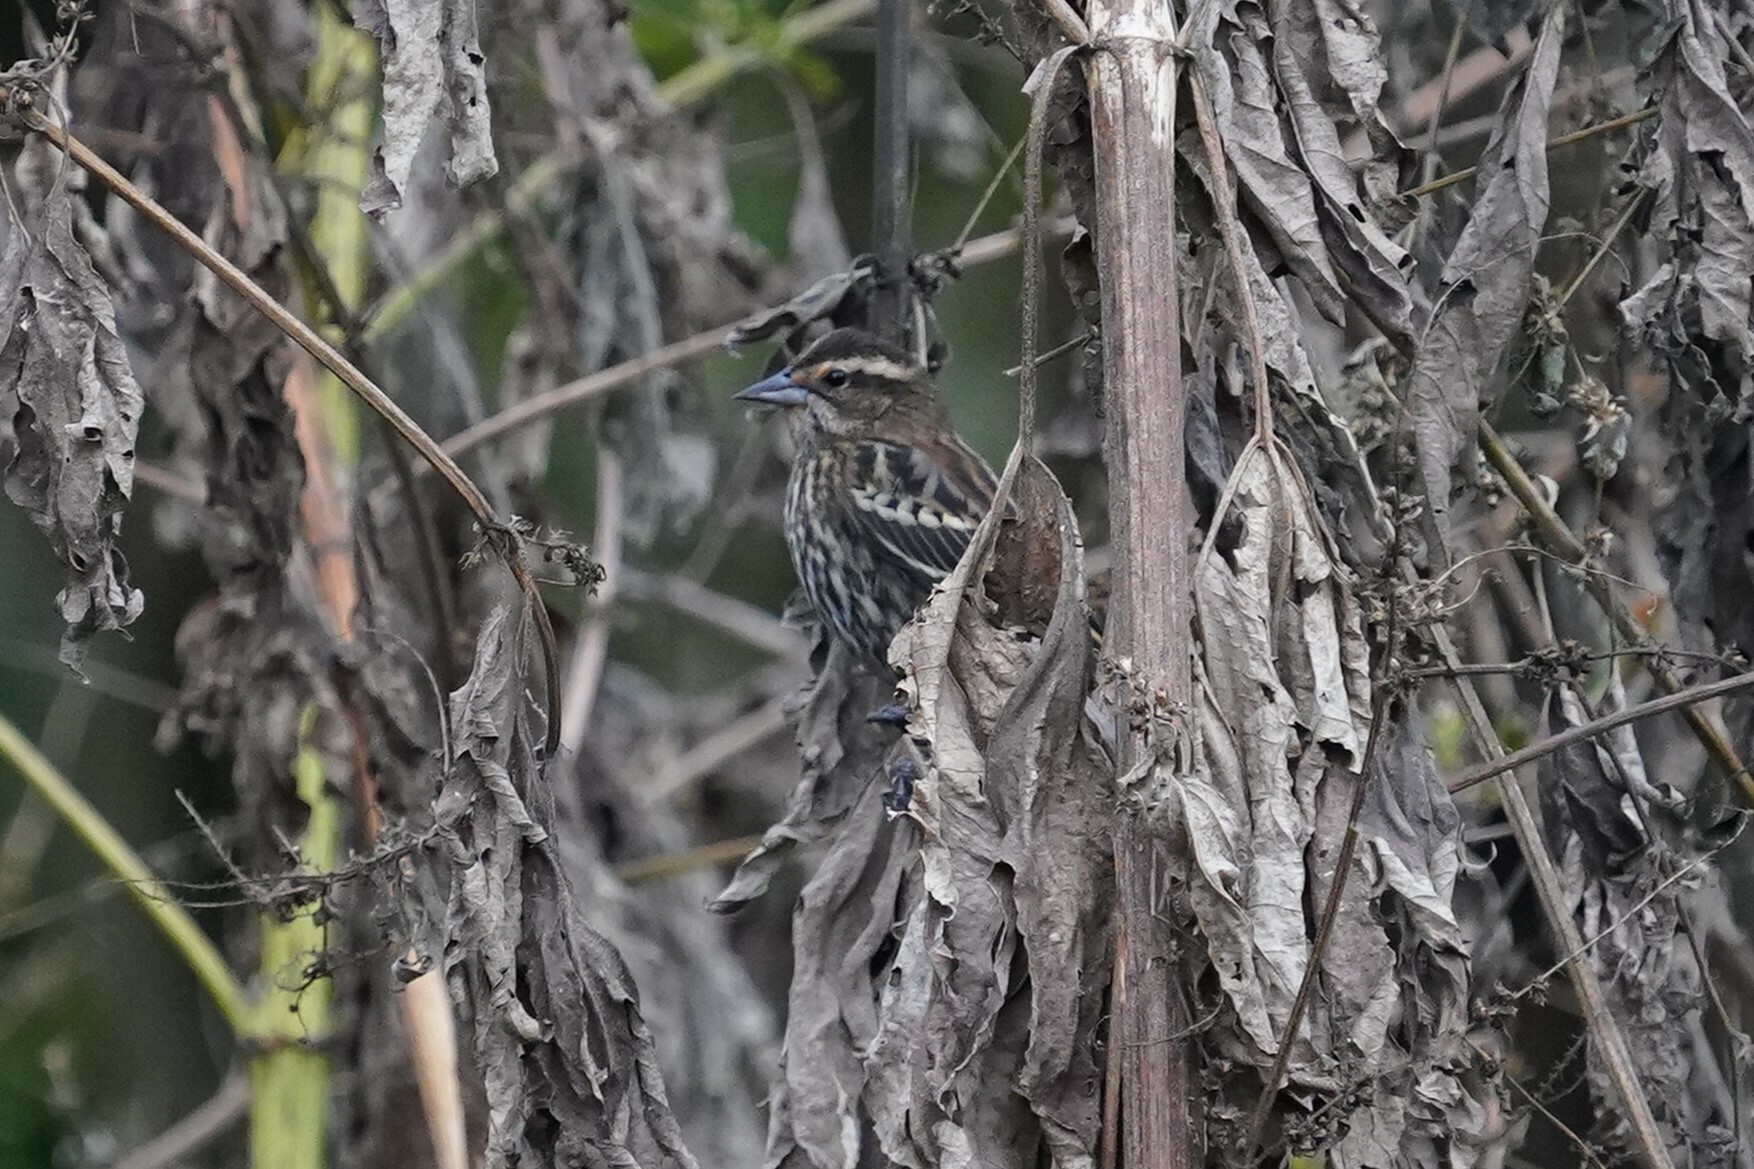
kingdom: Animalia
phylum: Chordata
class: Aves
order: Passeriformes
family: Icteridae
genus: Agelaius
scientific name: Agelaius phoeniceus
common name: Red-winged blackbird
